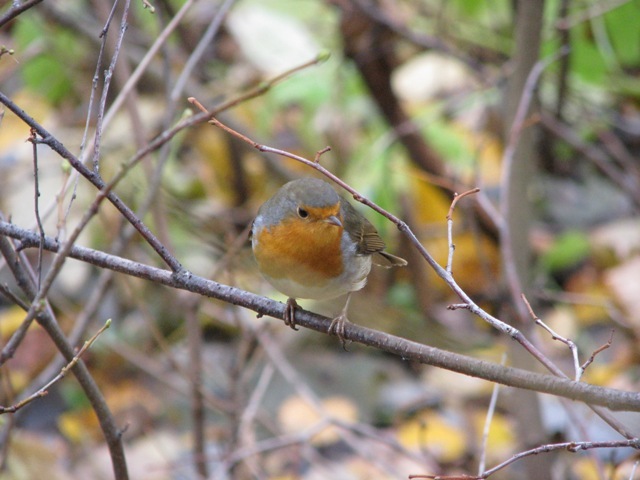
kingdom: Animalia
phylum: Chordata
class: Aves
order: Passeriformes
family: Muscicapidae
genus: Erithacus
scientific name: Erithacus rubecula
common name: European robin
